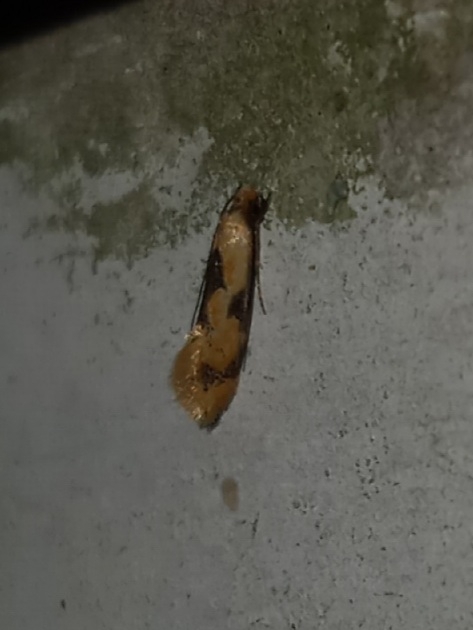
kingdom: Animalia
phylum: Arthropoda
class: Insecta
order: Lepidoptera
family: Meessiidae
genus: Hybroma
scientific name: Hybroma servulella
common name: Yellow wave moth
